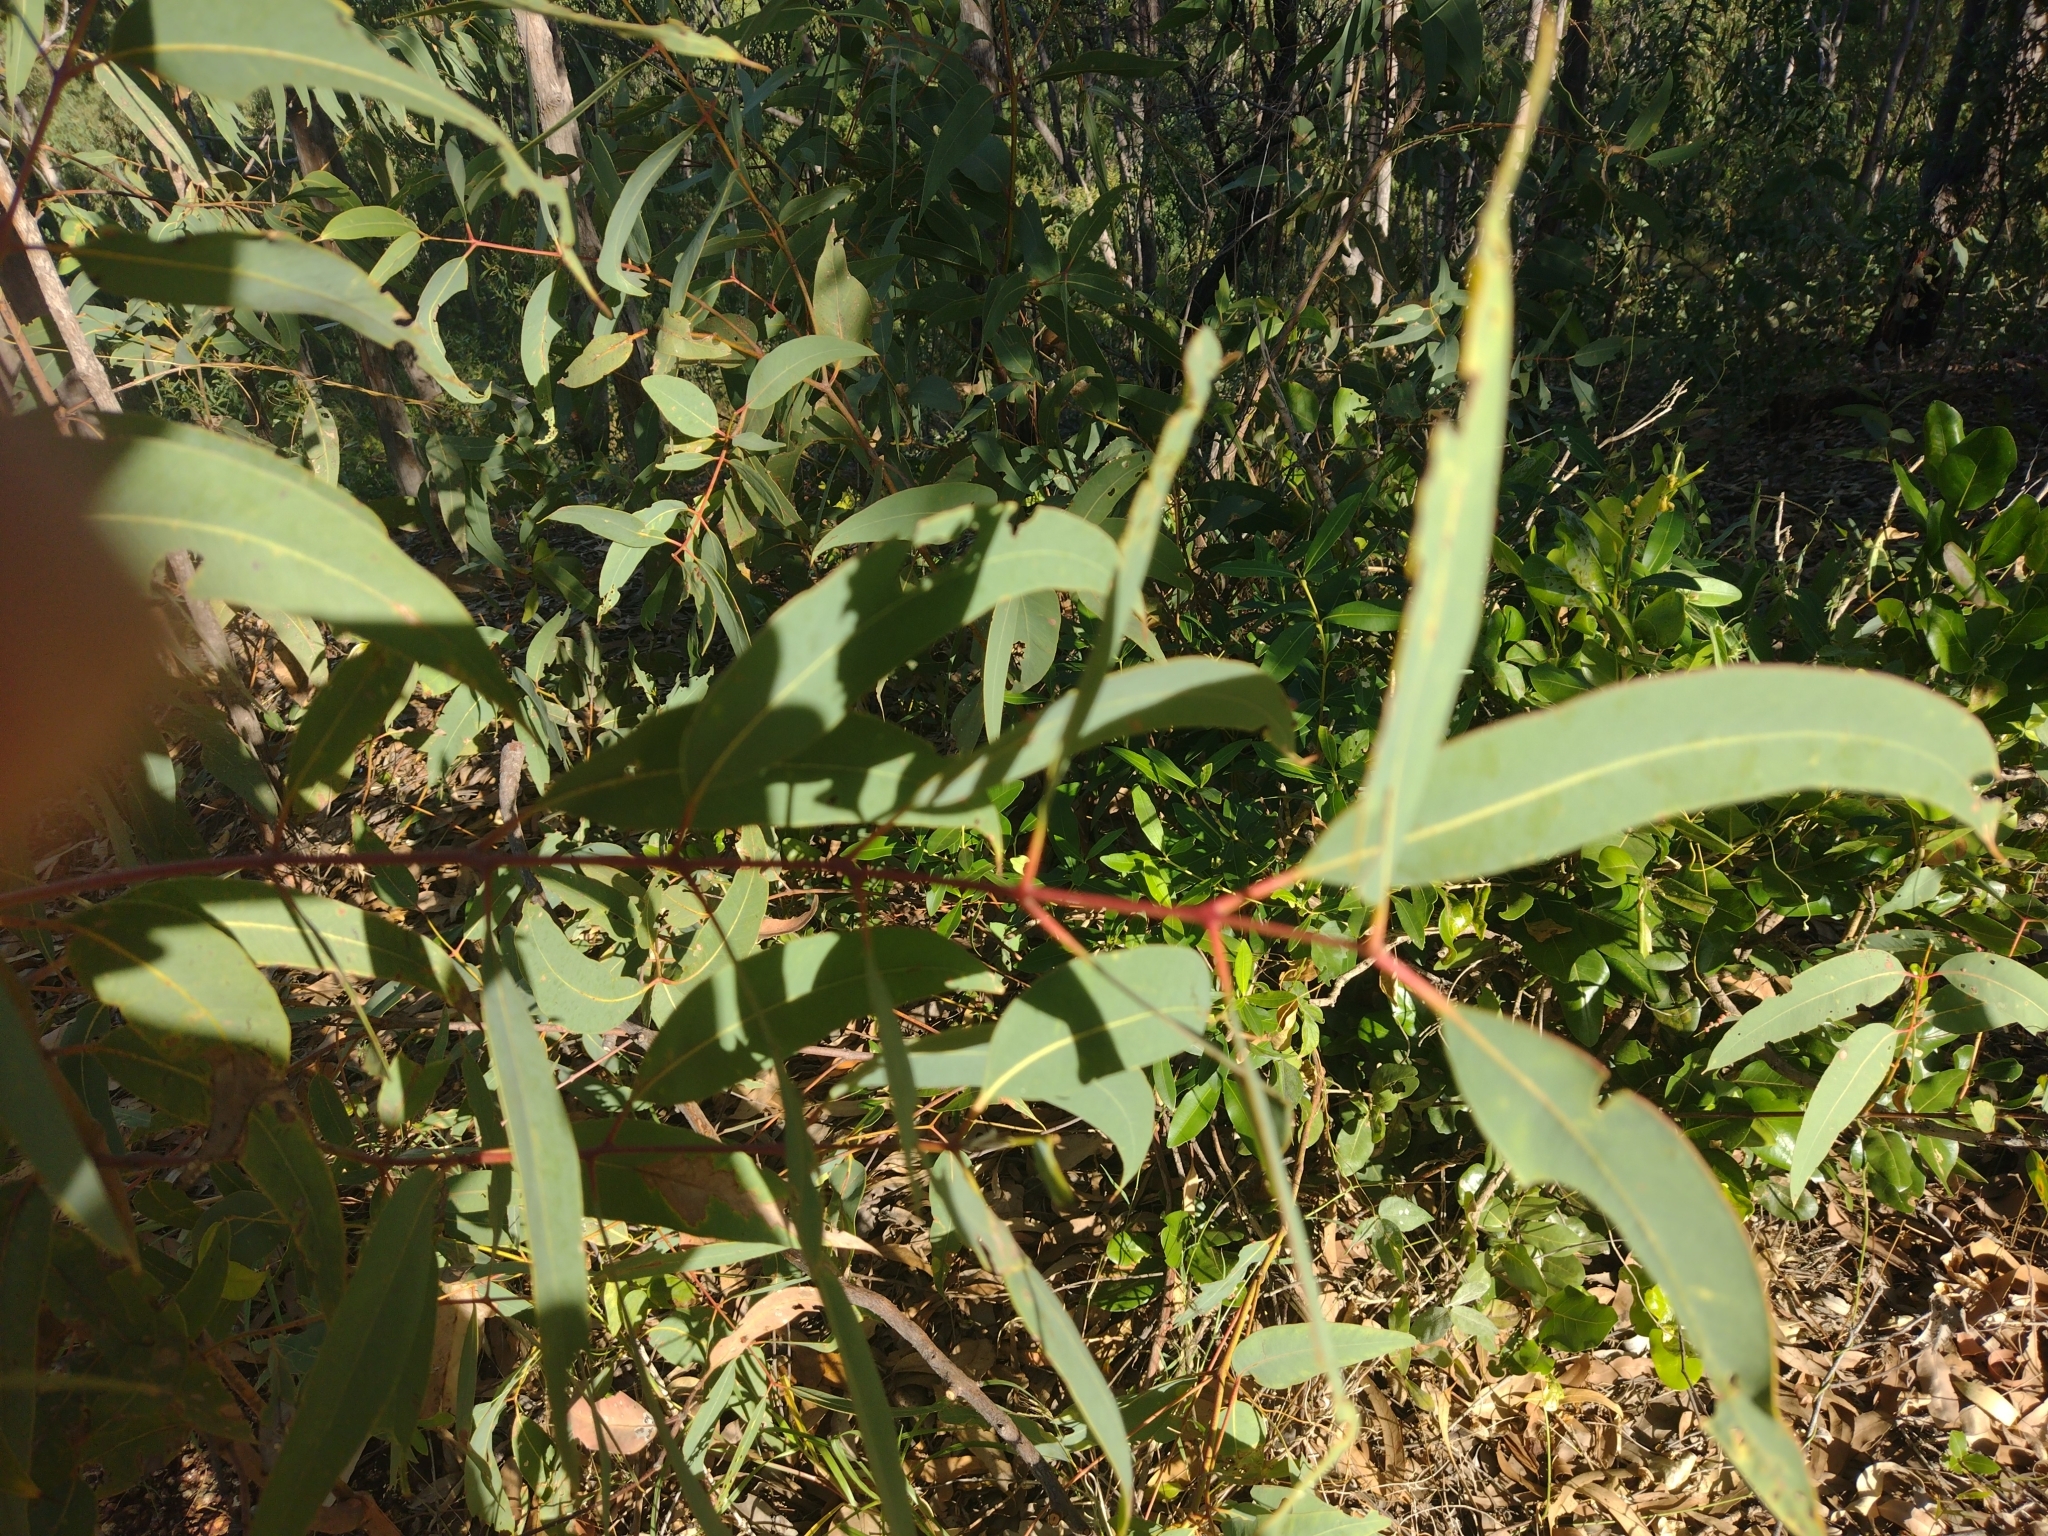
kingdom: Plantae
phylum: Tracheophyta
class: Magnoliopsida
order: Myrtales
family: Myrtaceae
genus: Corymbia
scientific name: Corymbia polycarpa
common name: Long-fruited-bloodwood
